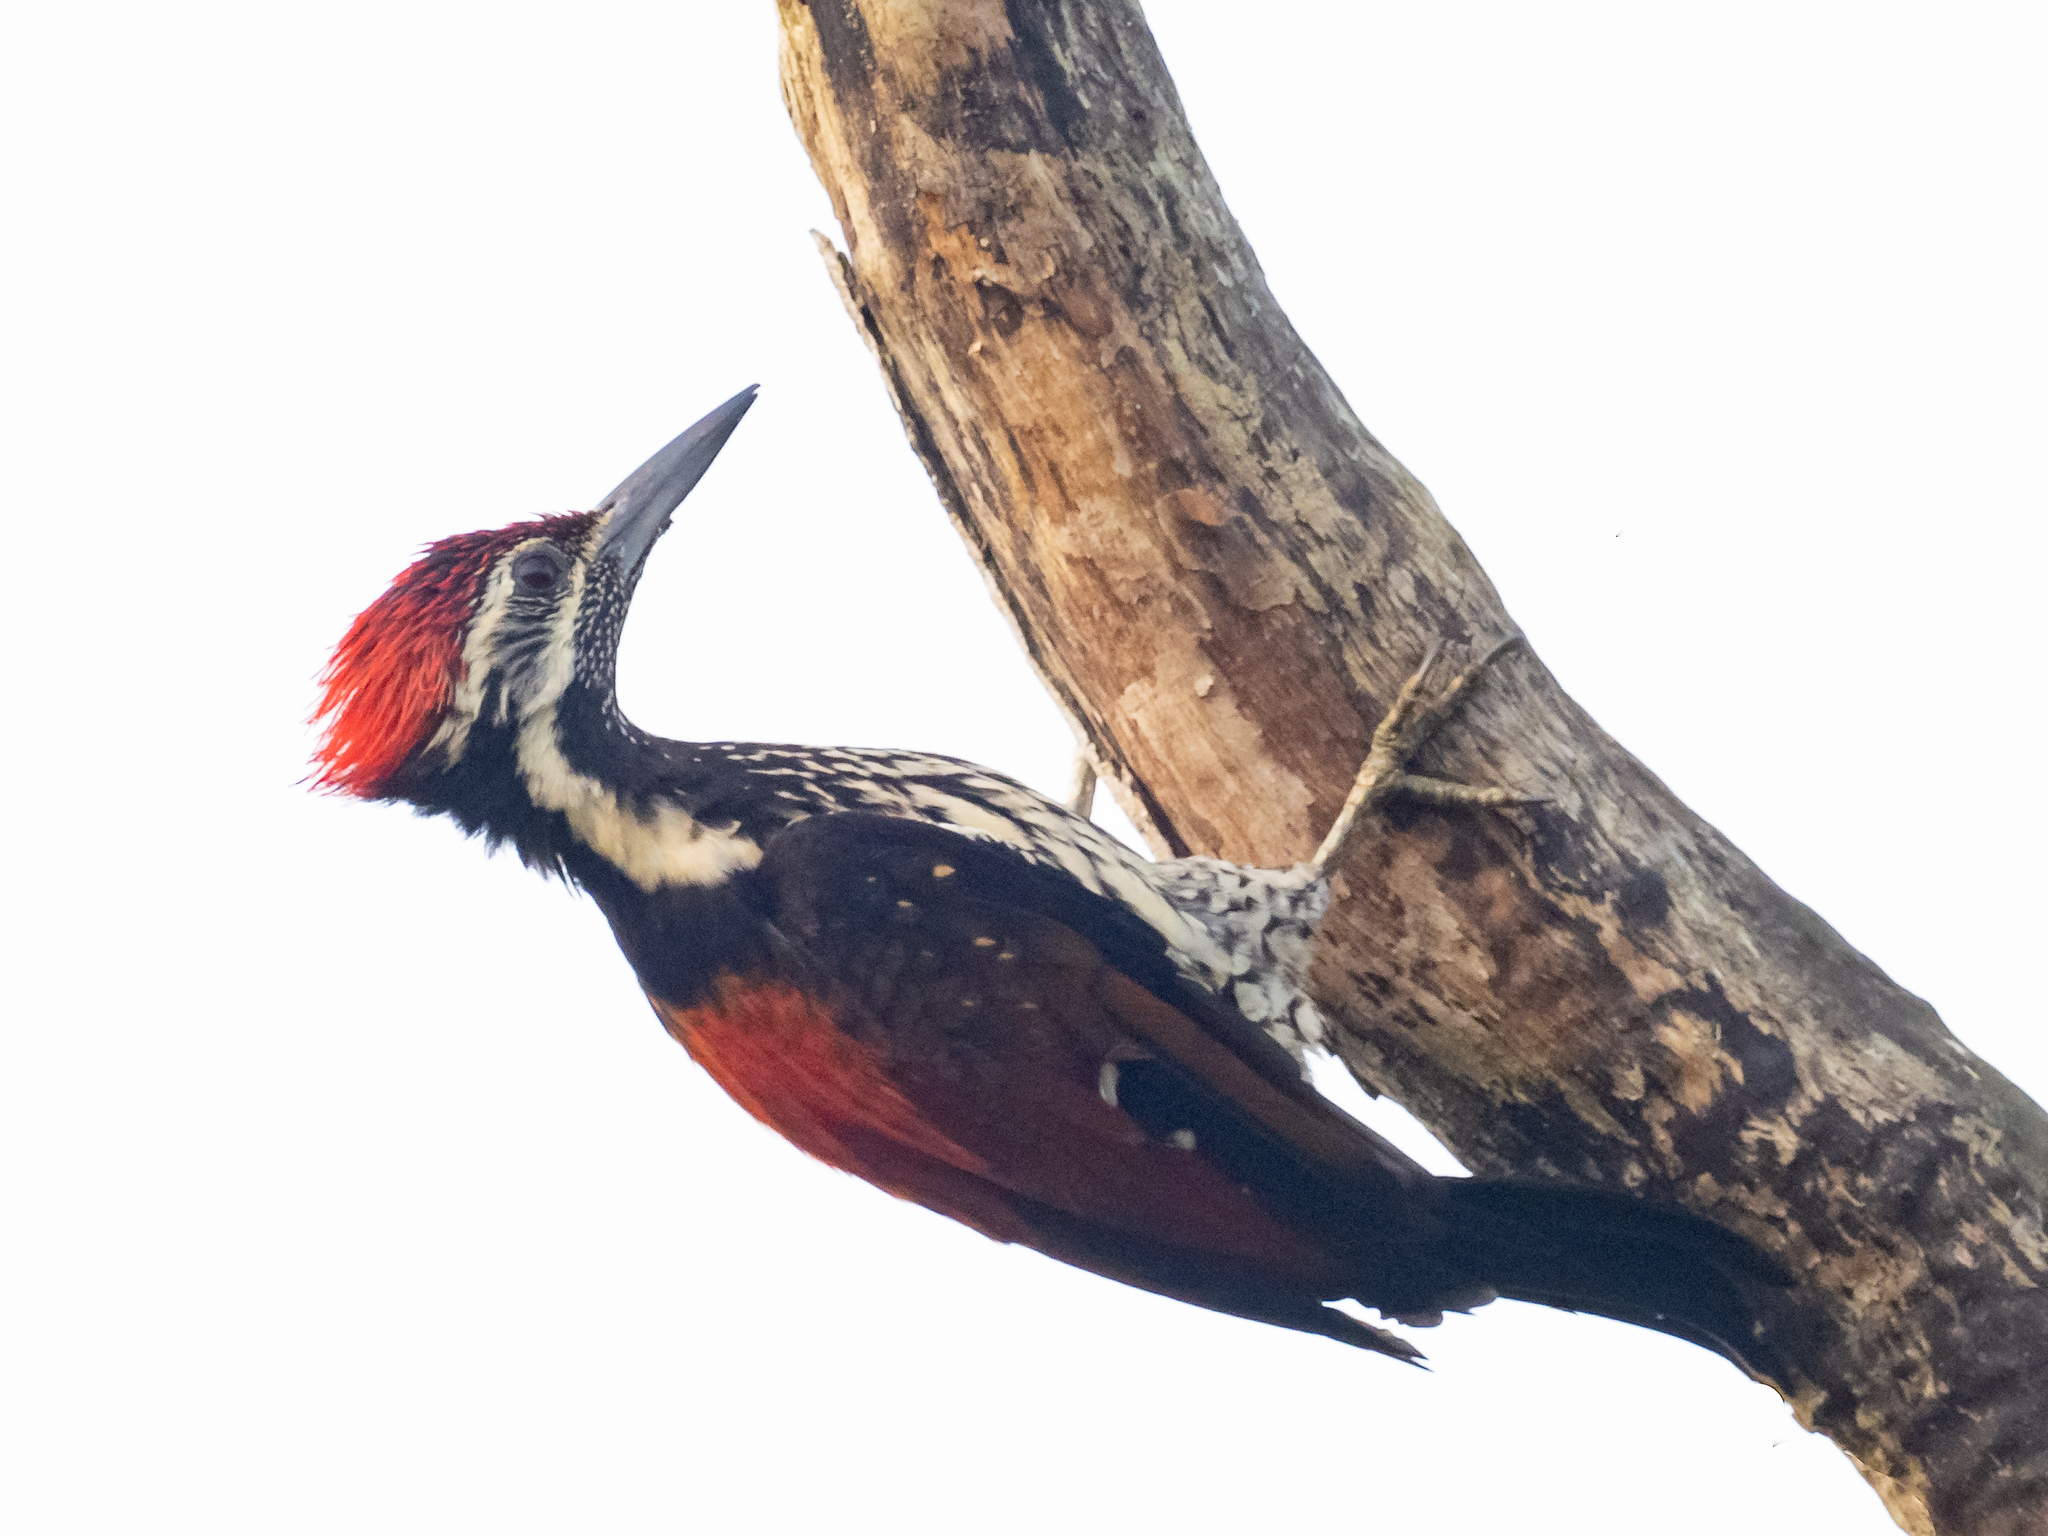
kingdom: Animalia
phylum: Chordata
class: Aves
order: Piciformes
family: Picidae
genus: Dinopium
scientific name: Dinopium psarodes
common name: Red-backed flameback
